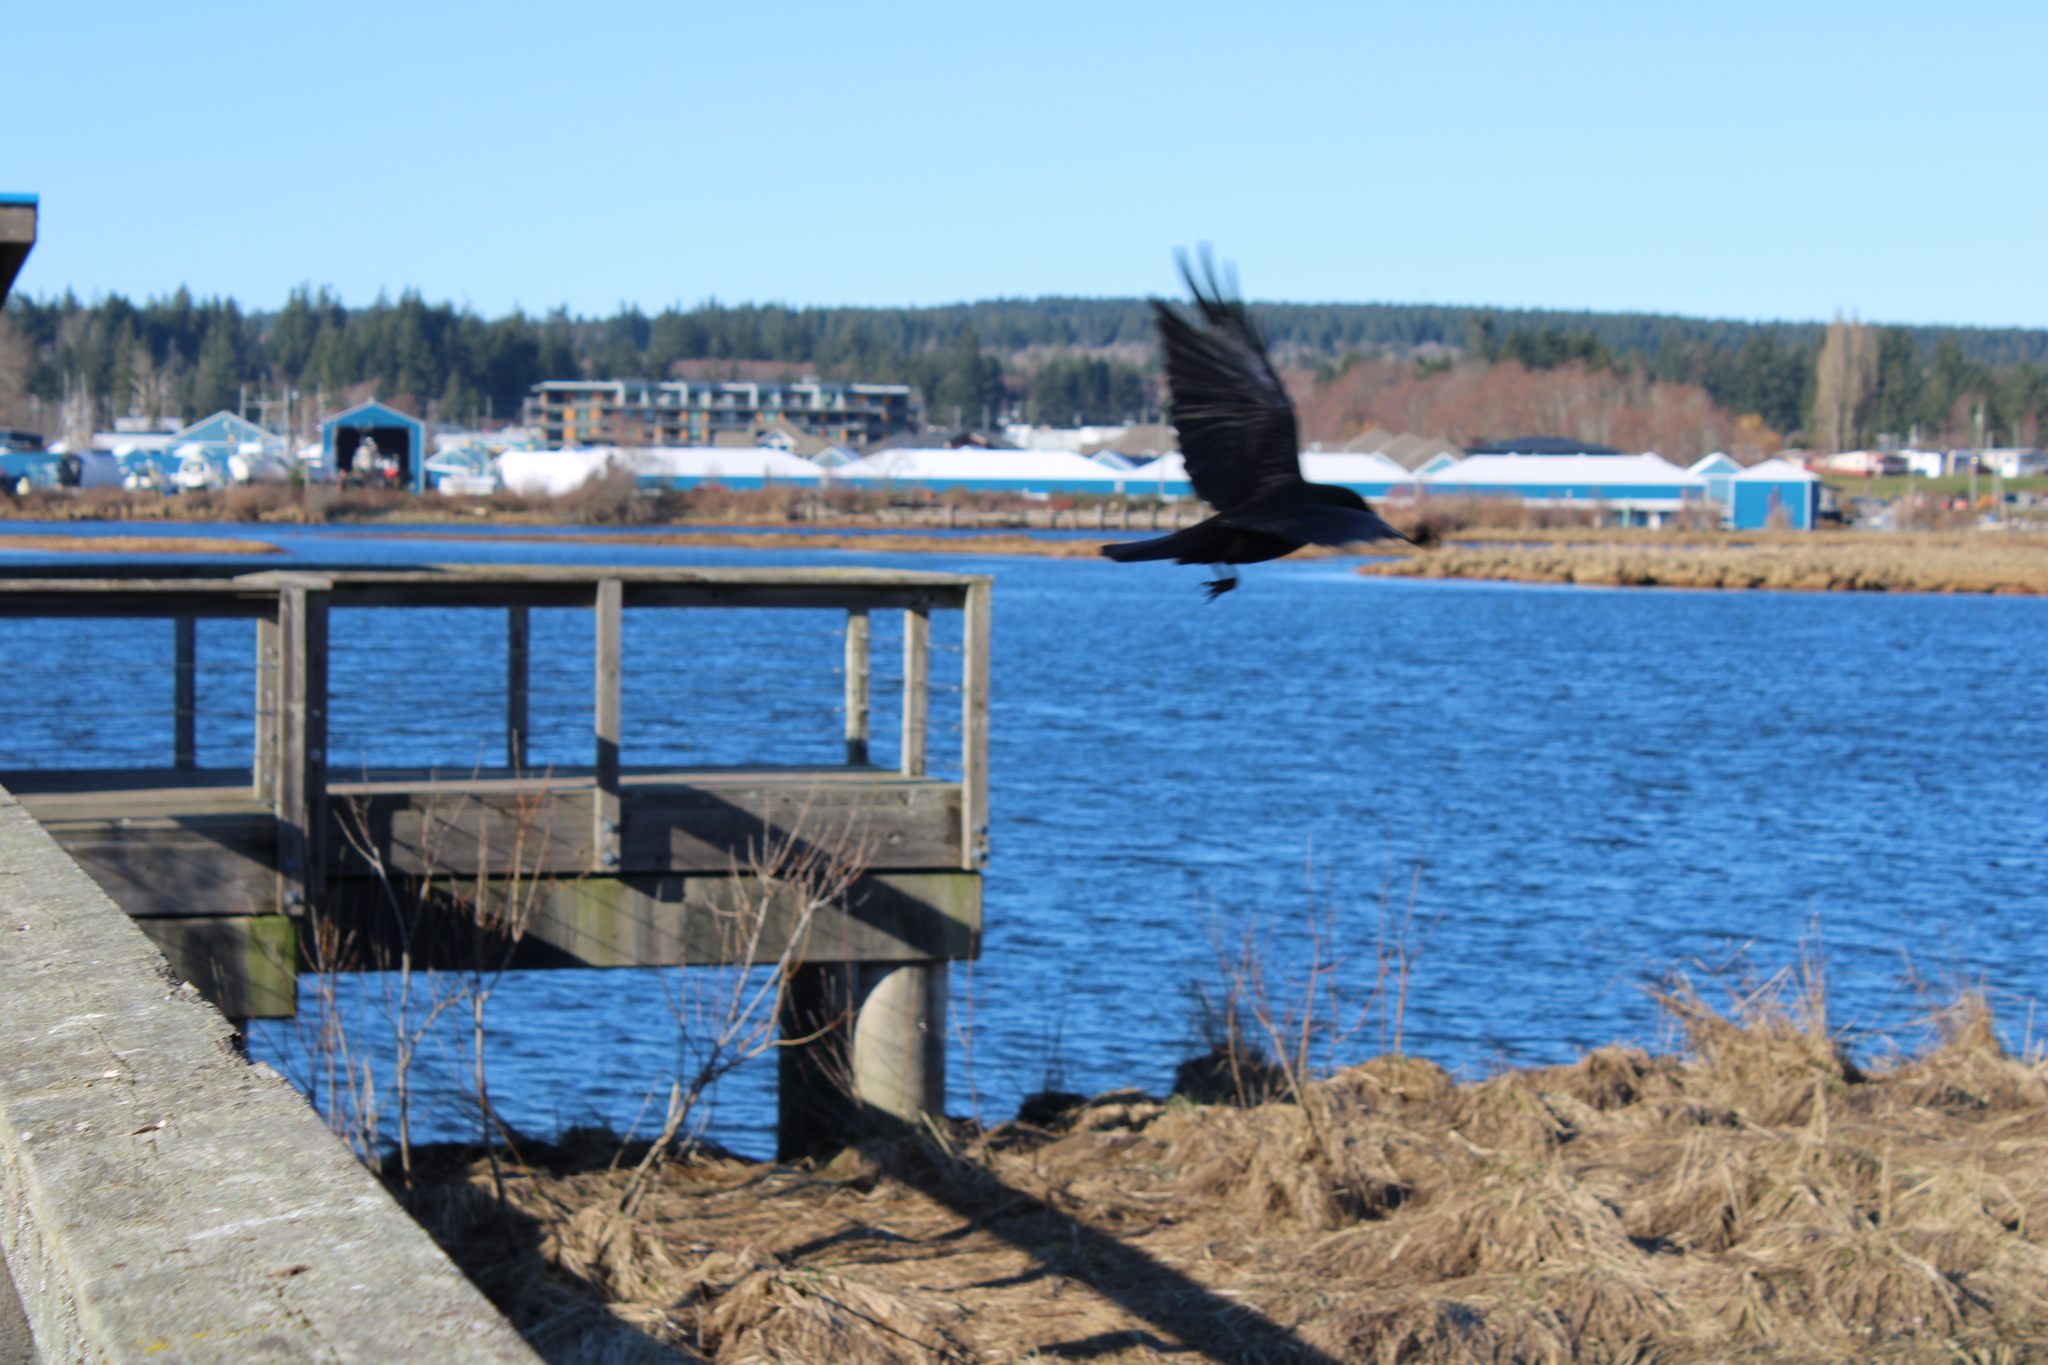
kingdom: Animalia
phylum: Chordata
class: Aves
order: Passeriformes
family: Corvidae
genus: Corvus
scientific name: Corvus brachyrhynchos
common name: American crow
